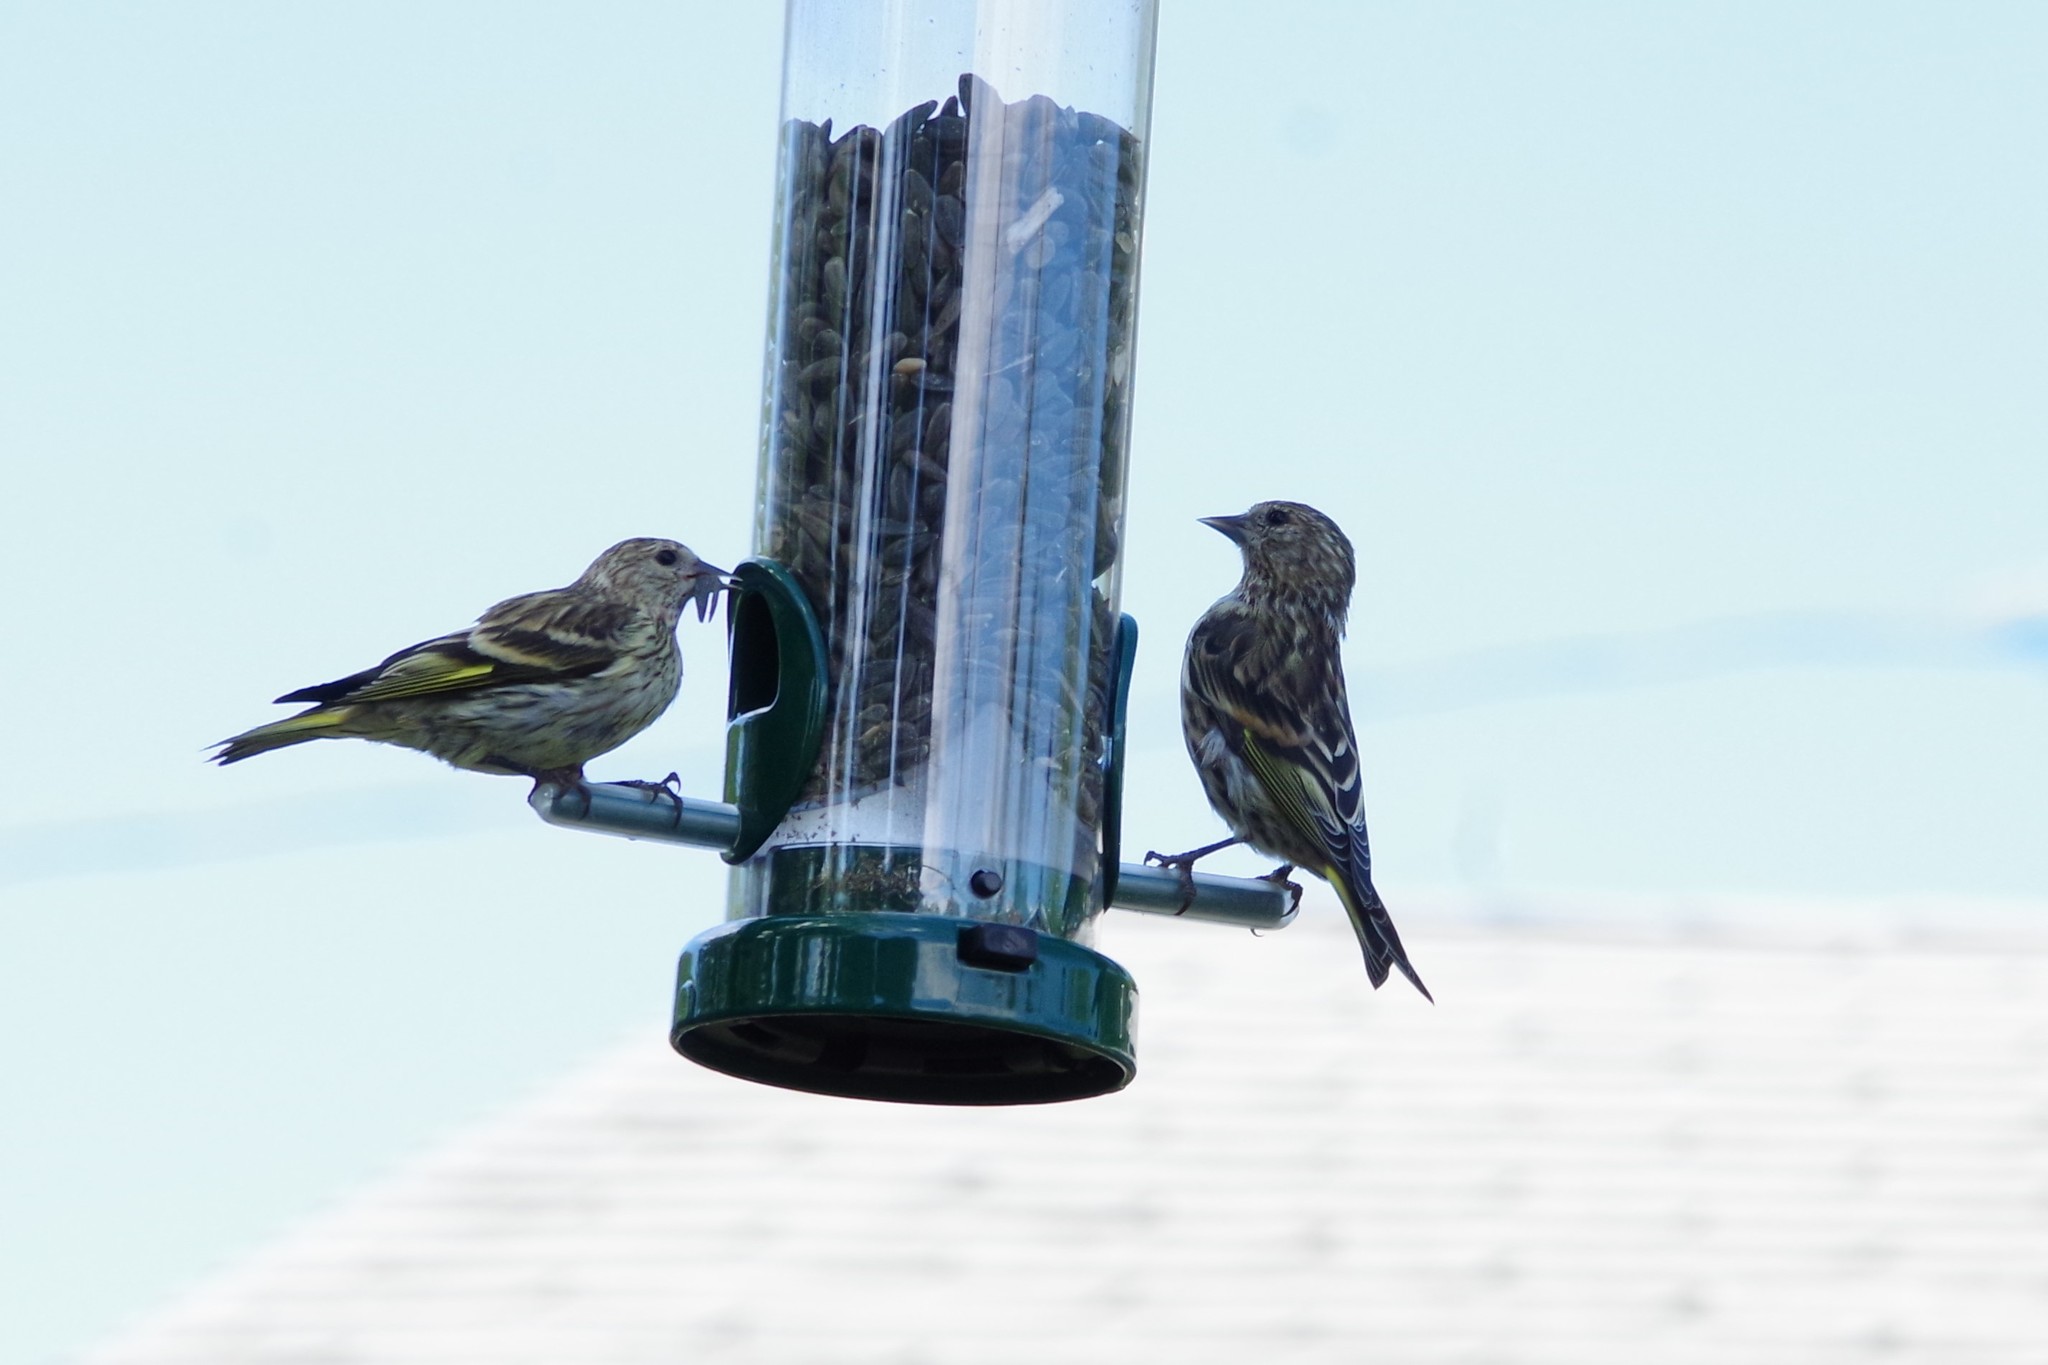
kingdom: Animalia
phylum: Chordata
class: Aves
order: Passeriformes
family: Fringillidae
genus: Spinus
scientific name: Spinus pinus
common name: Pine siskin
